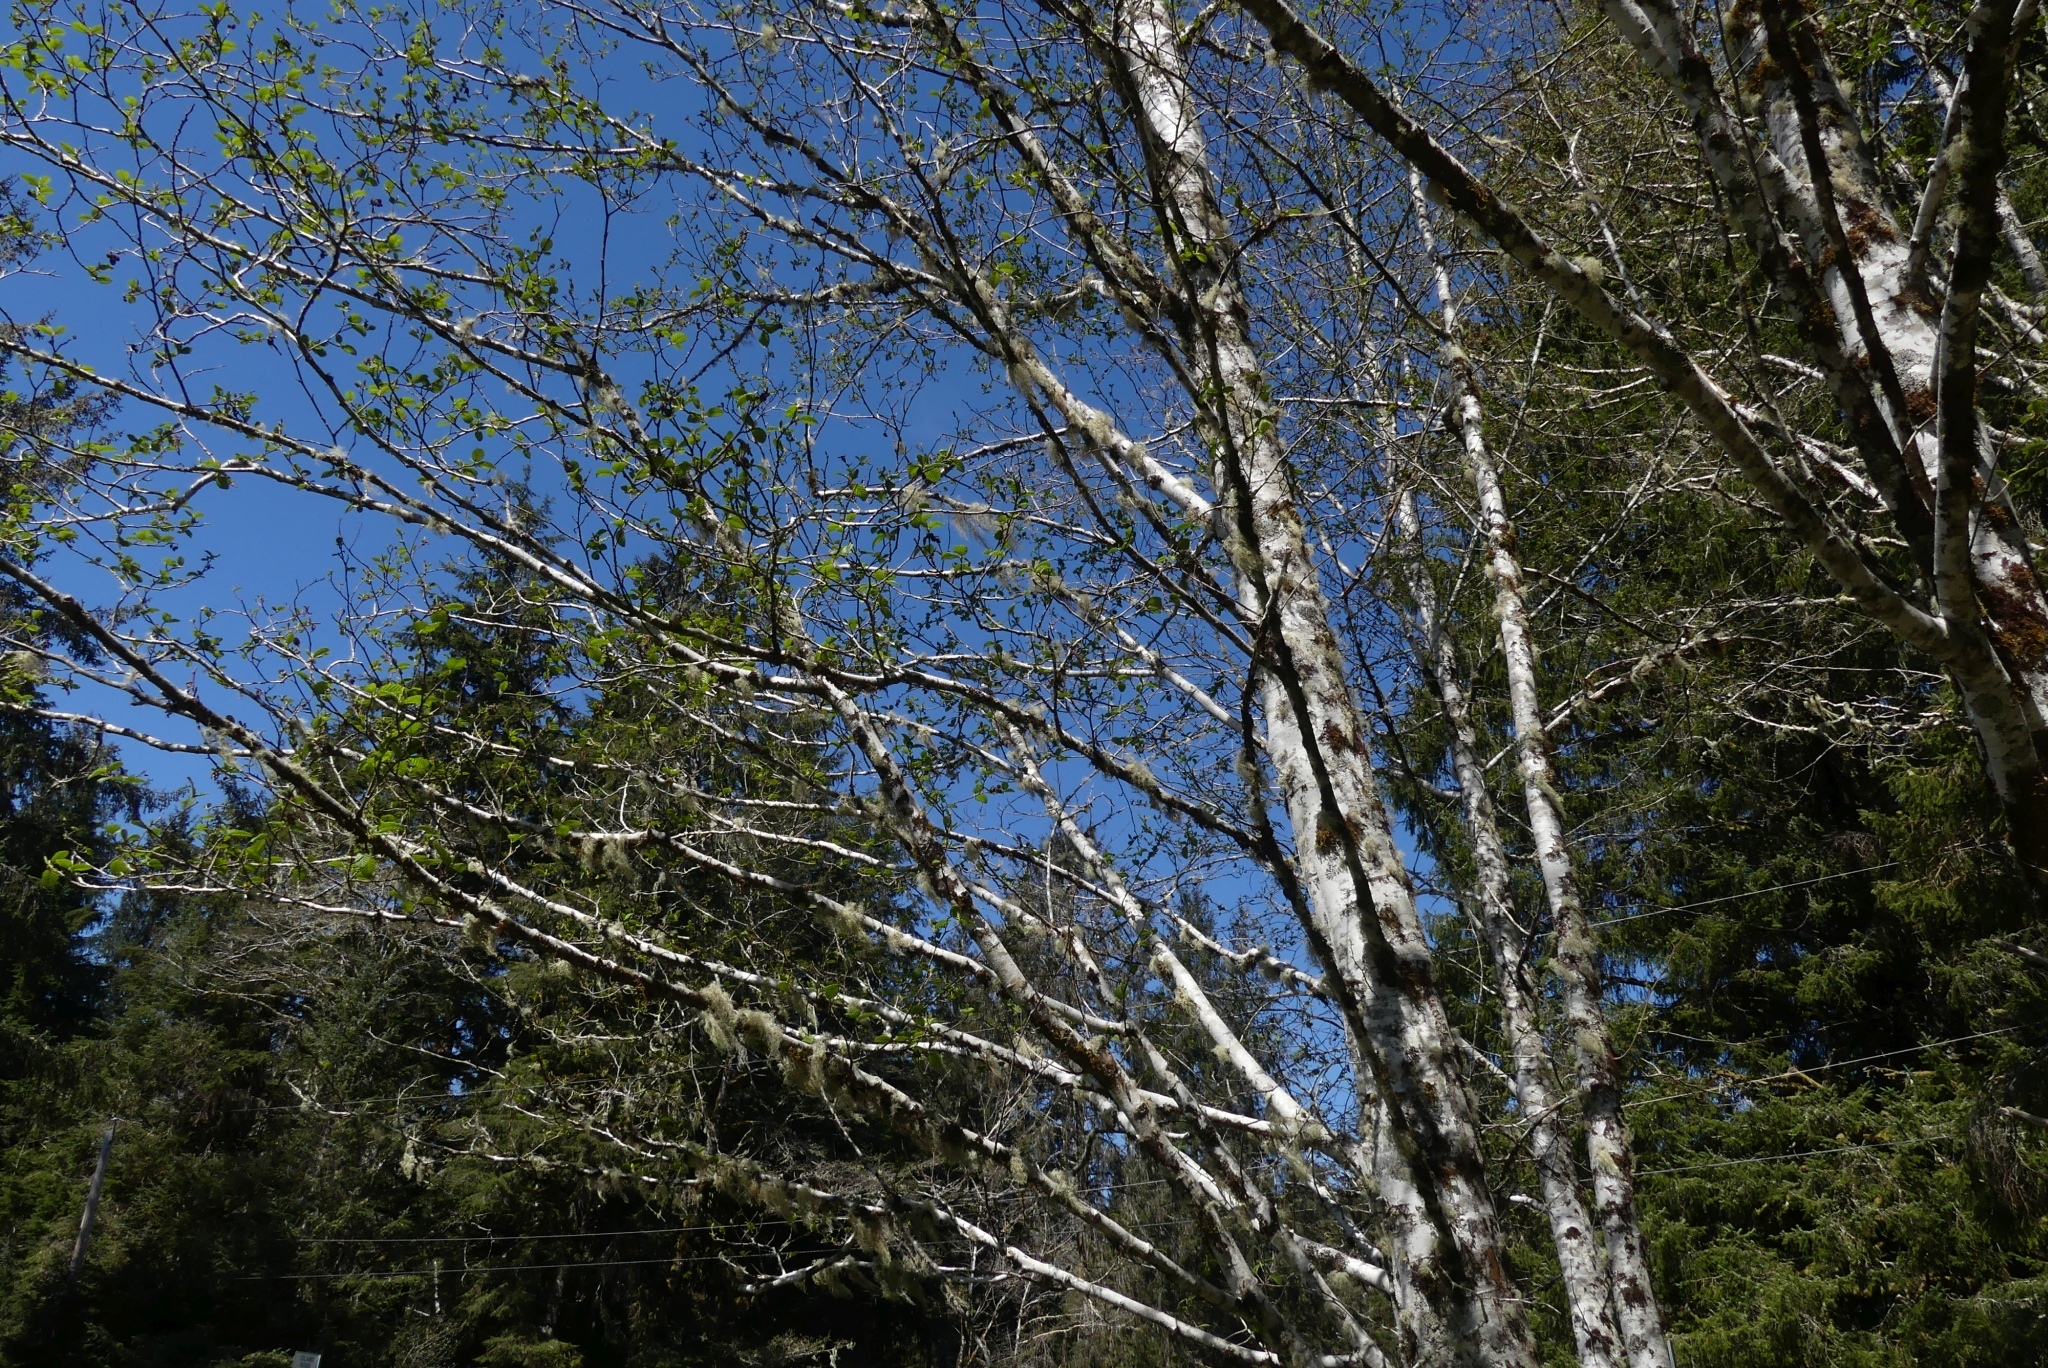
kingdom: Plantae
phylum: Tracheophyta
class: Magnoliopsida
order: Fagales
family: Betulaceae
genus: Alnus
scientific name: Alnus rubra
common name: Red alder
